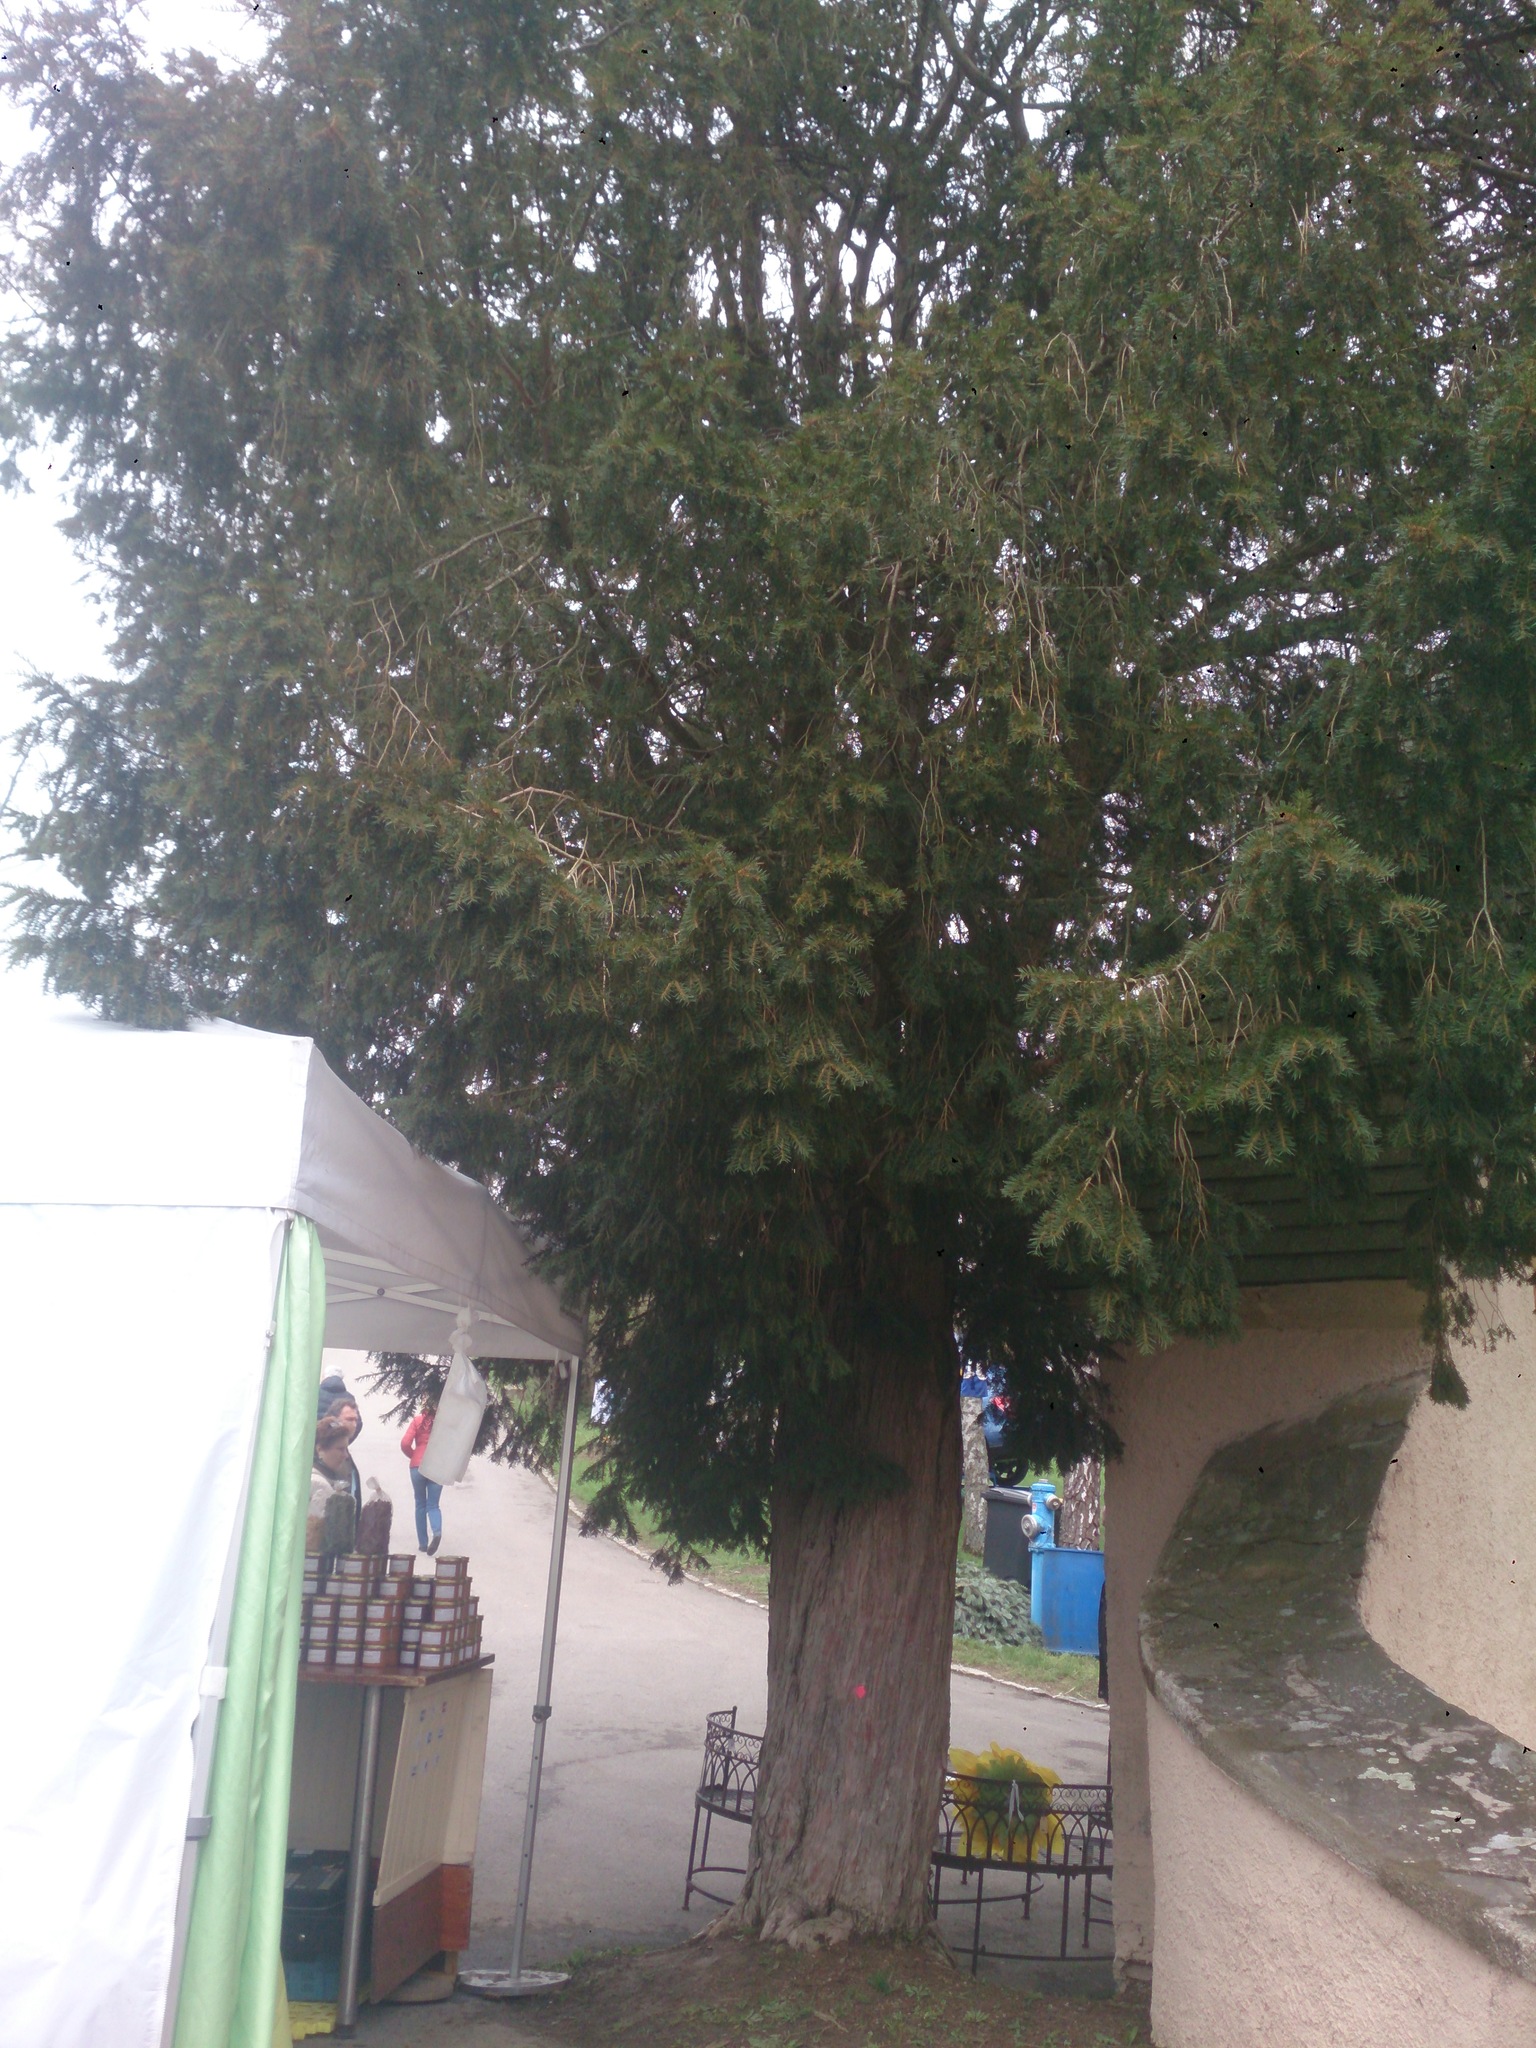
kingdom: Plantae
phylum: Tracheophyta
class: Pinopsida
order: Pinales
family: Taxaceae
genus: Taxus
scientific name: Taxus baccata
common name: Yew
